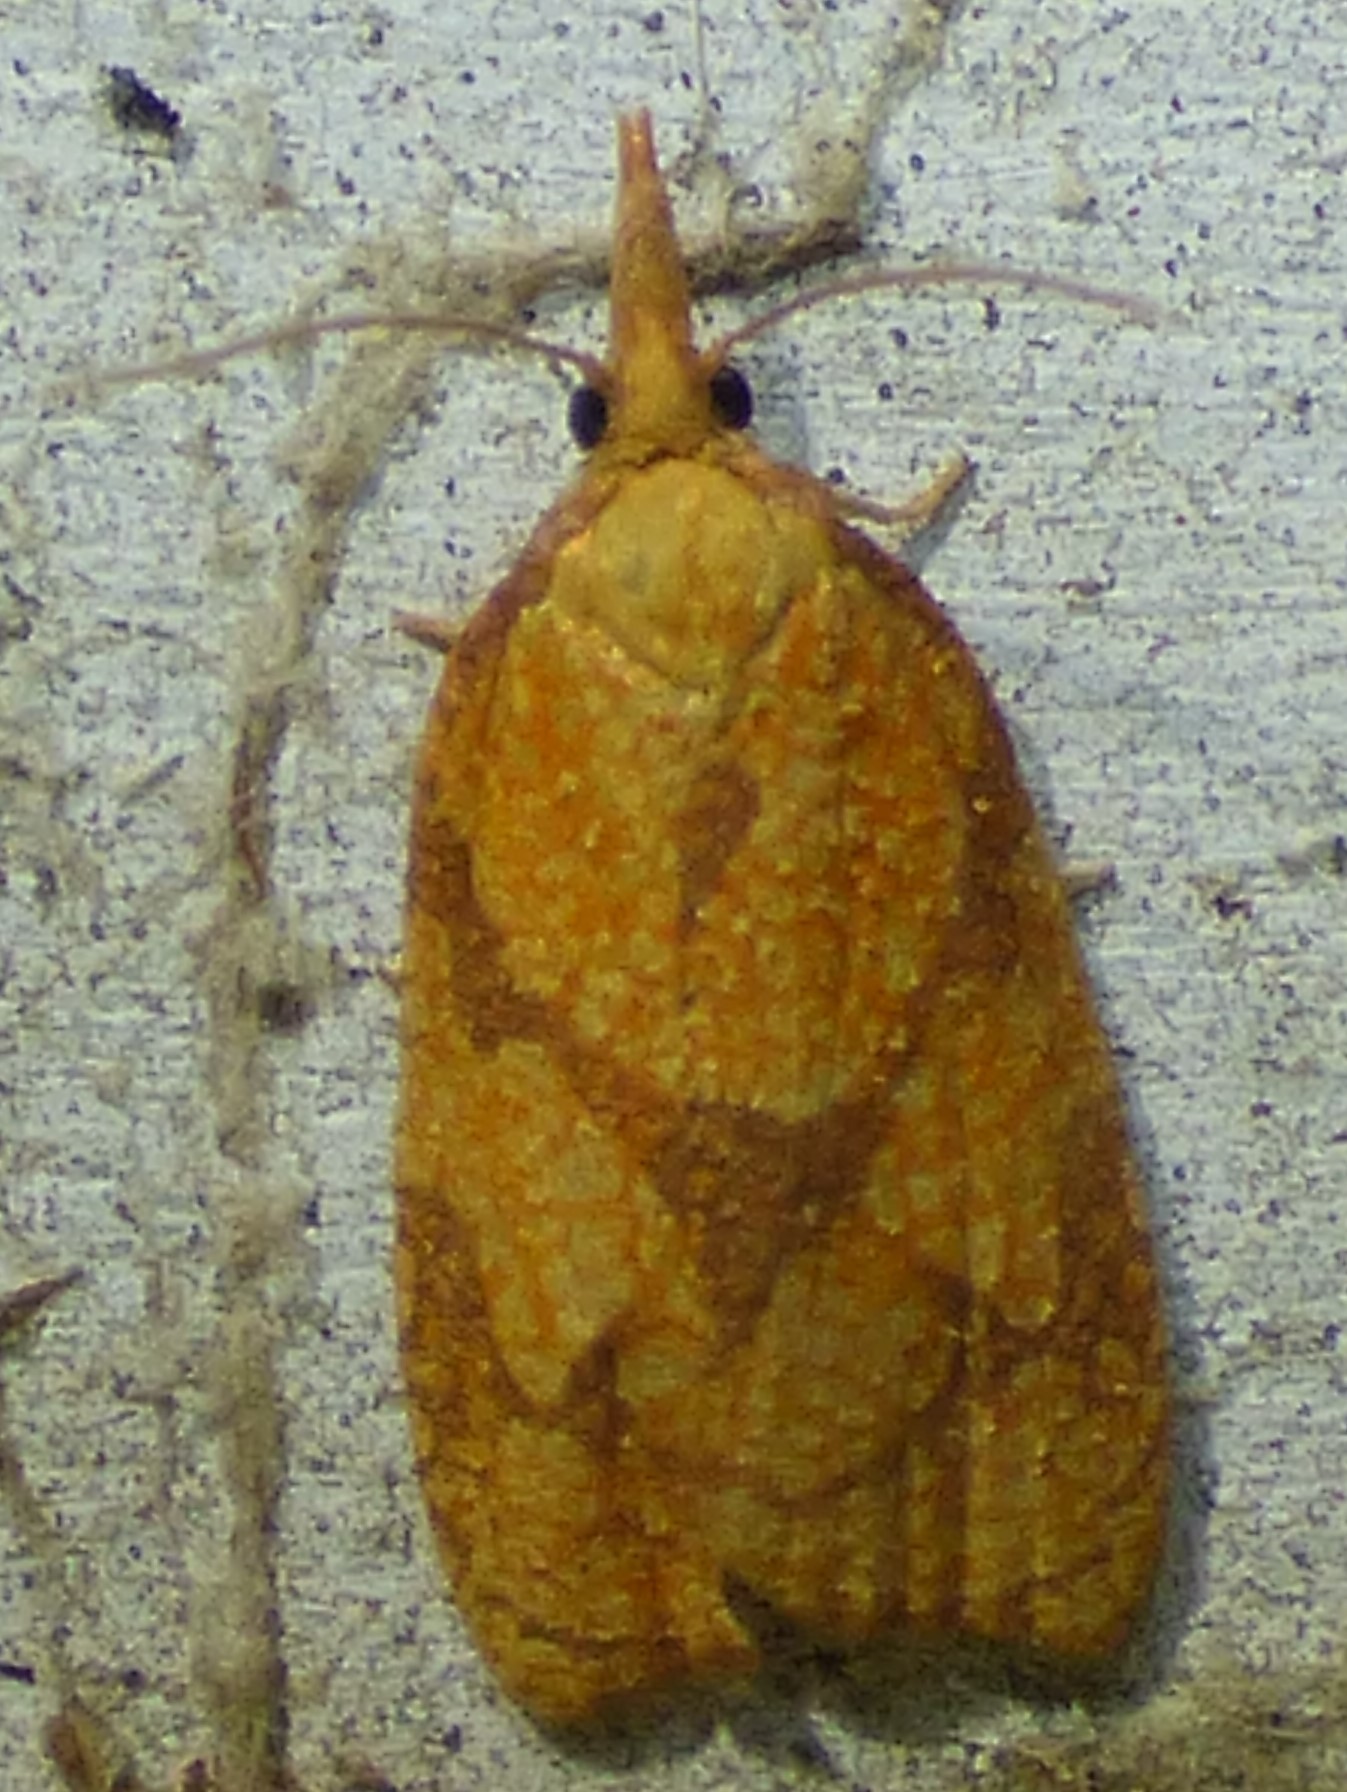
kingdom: Animalia
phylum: Arthropoda
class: Insecta
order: Lepidoptera
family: Tortricidae
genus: Cenopis
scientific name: Cenopis reticulatana
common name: Reticulated fruitworm moth
